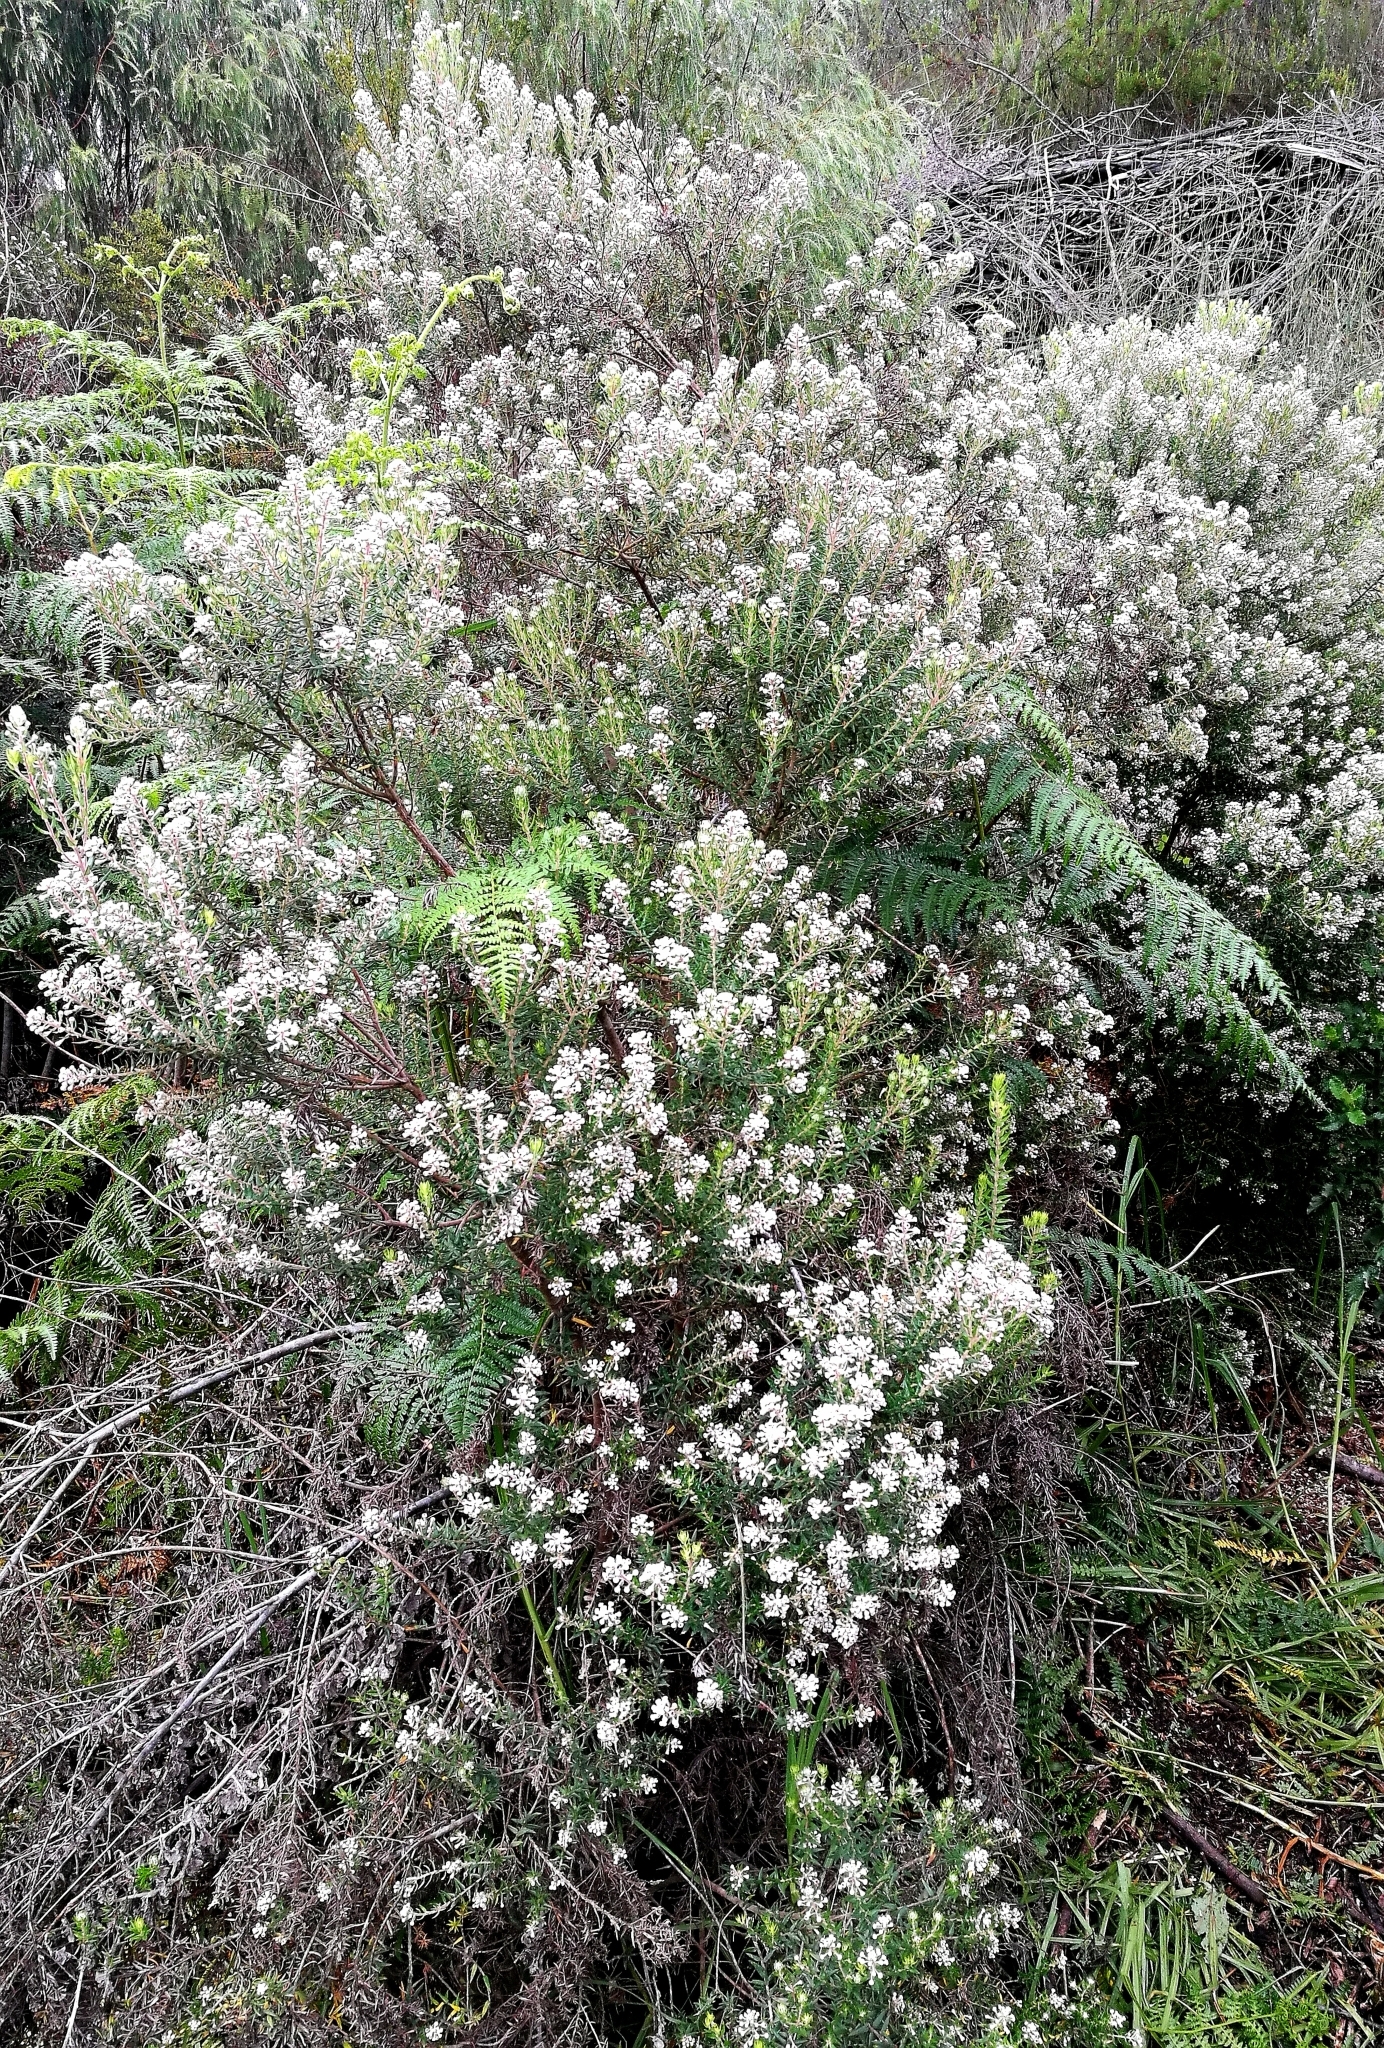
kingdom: Plantae
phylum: Tracheophyta
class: Magnoliopsida
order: Rosales
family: Rhamnaceae
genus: Phylica
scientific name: Phylica pinea
